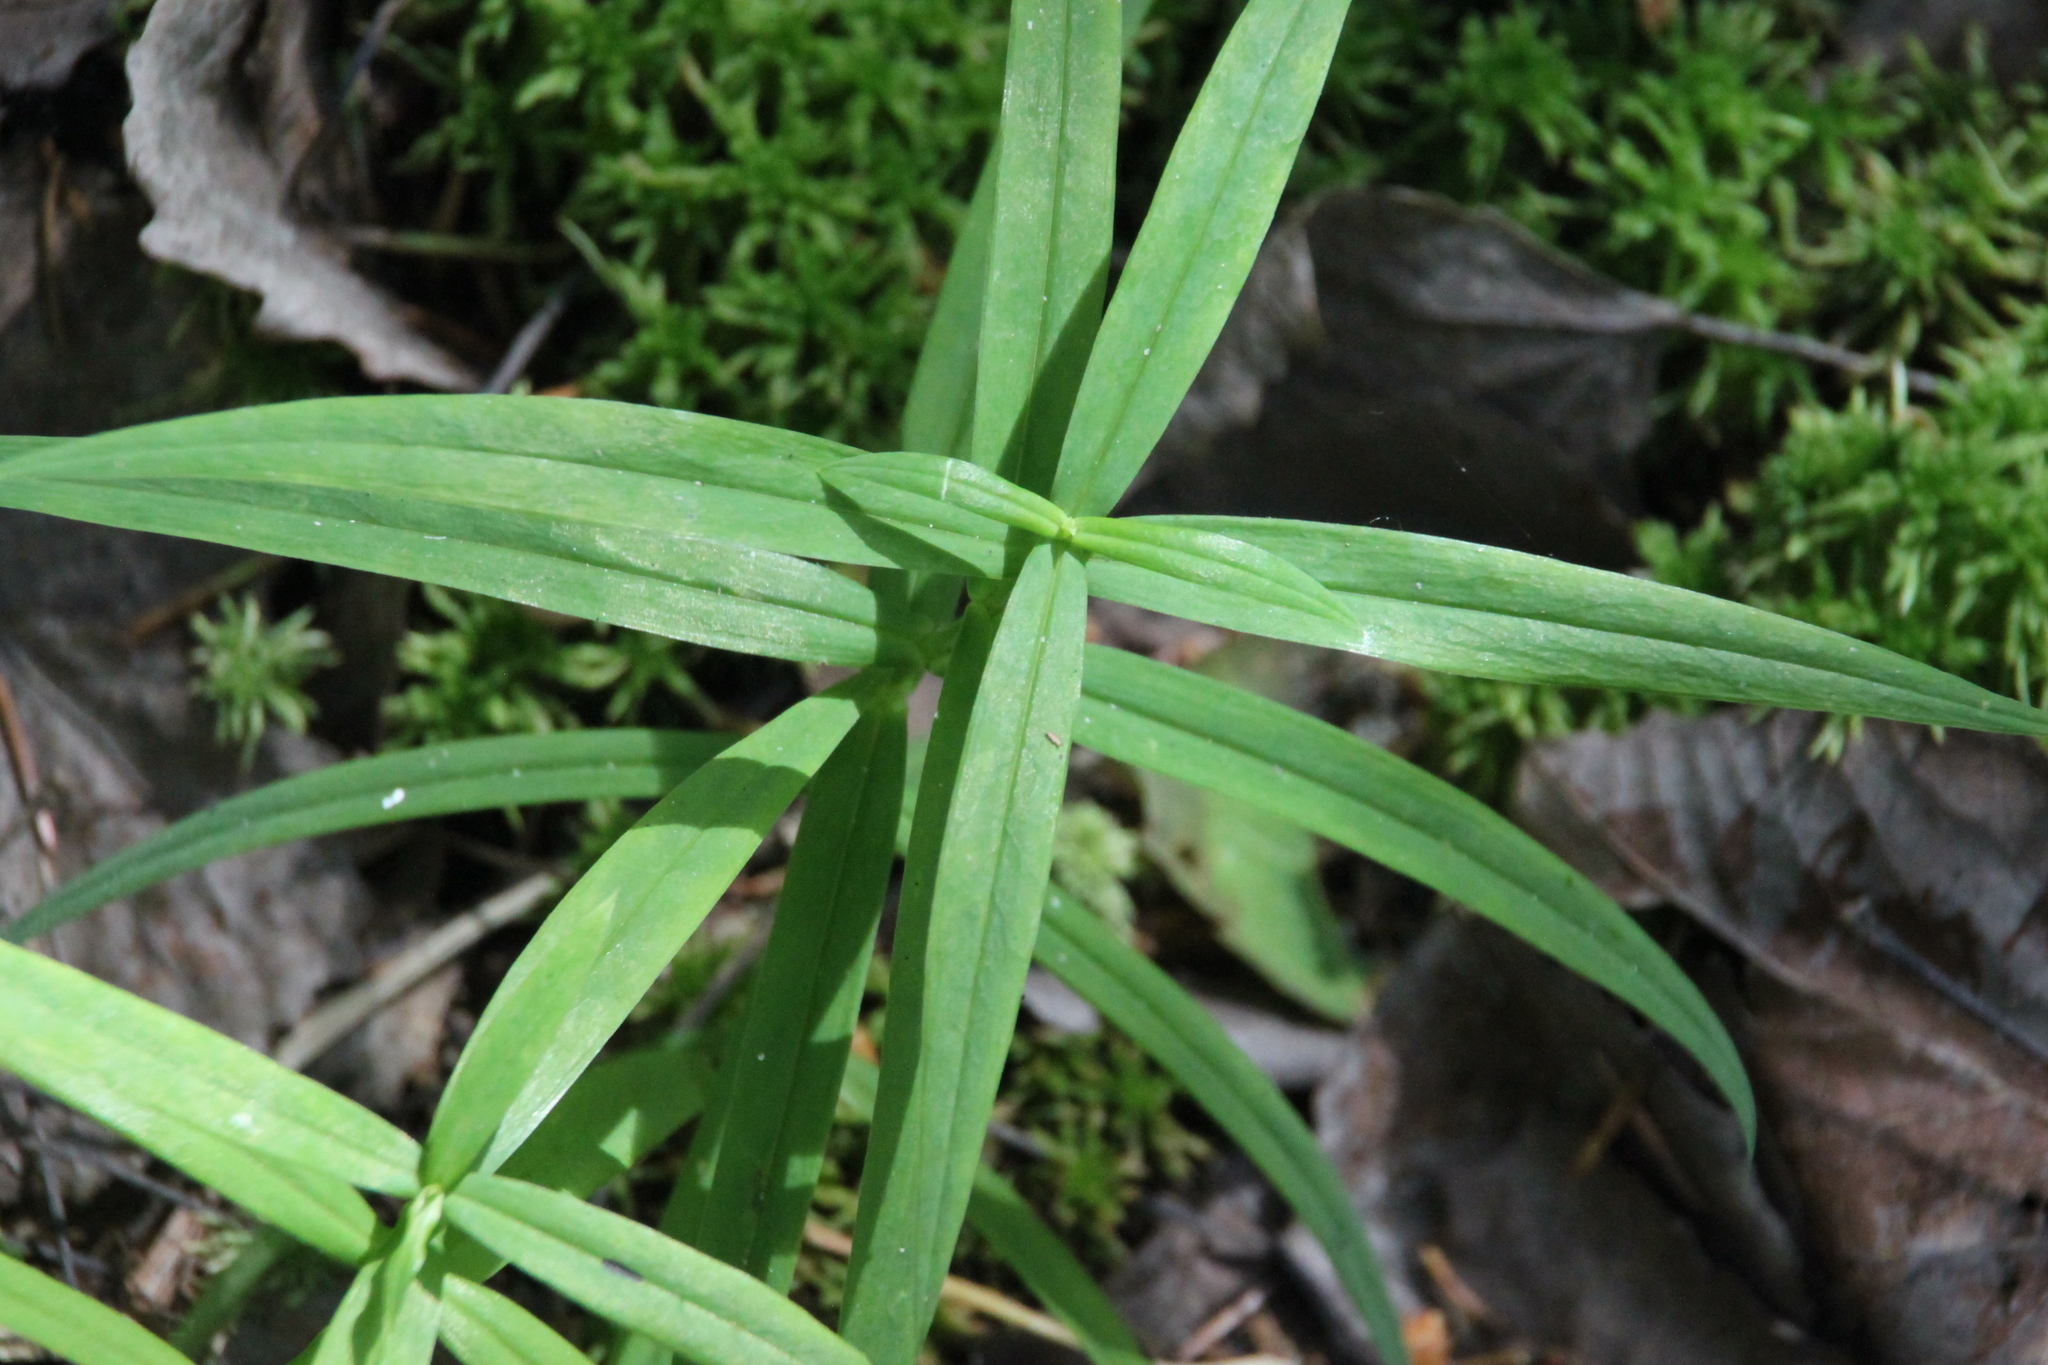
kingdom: Plantae
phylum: Tracheophyta
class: Magnoliopsida
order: Caryophyllales
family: Caryophyllaceae
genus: Rabelera
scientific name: Rabelera holostea
